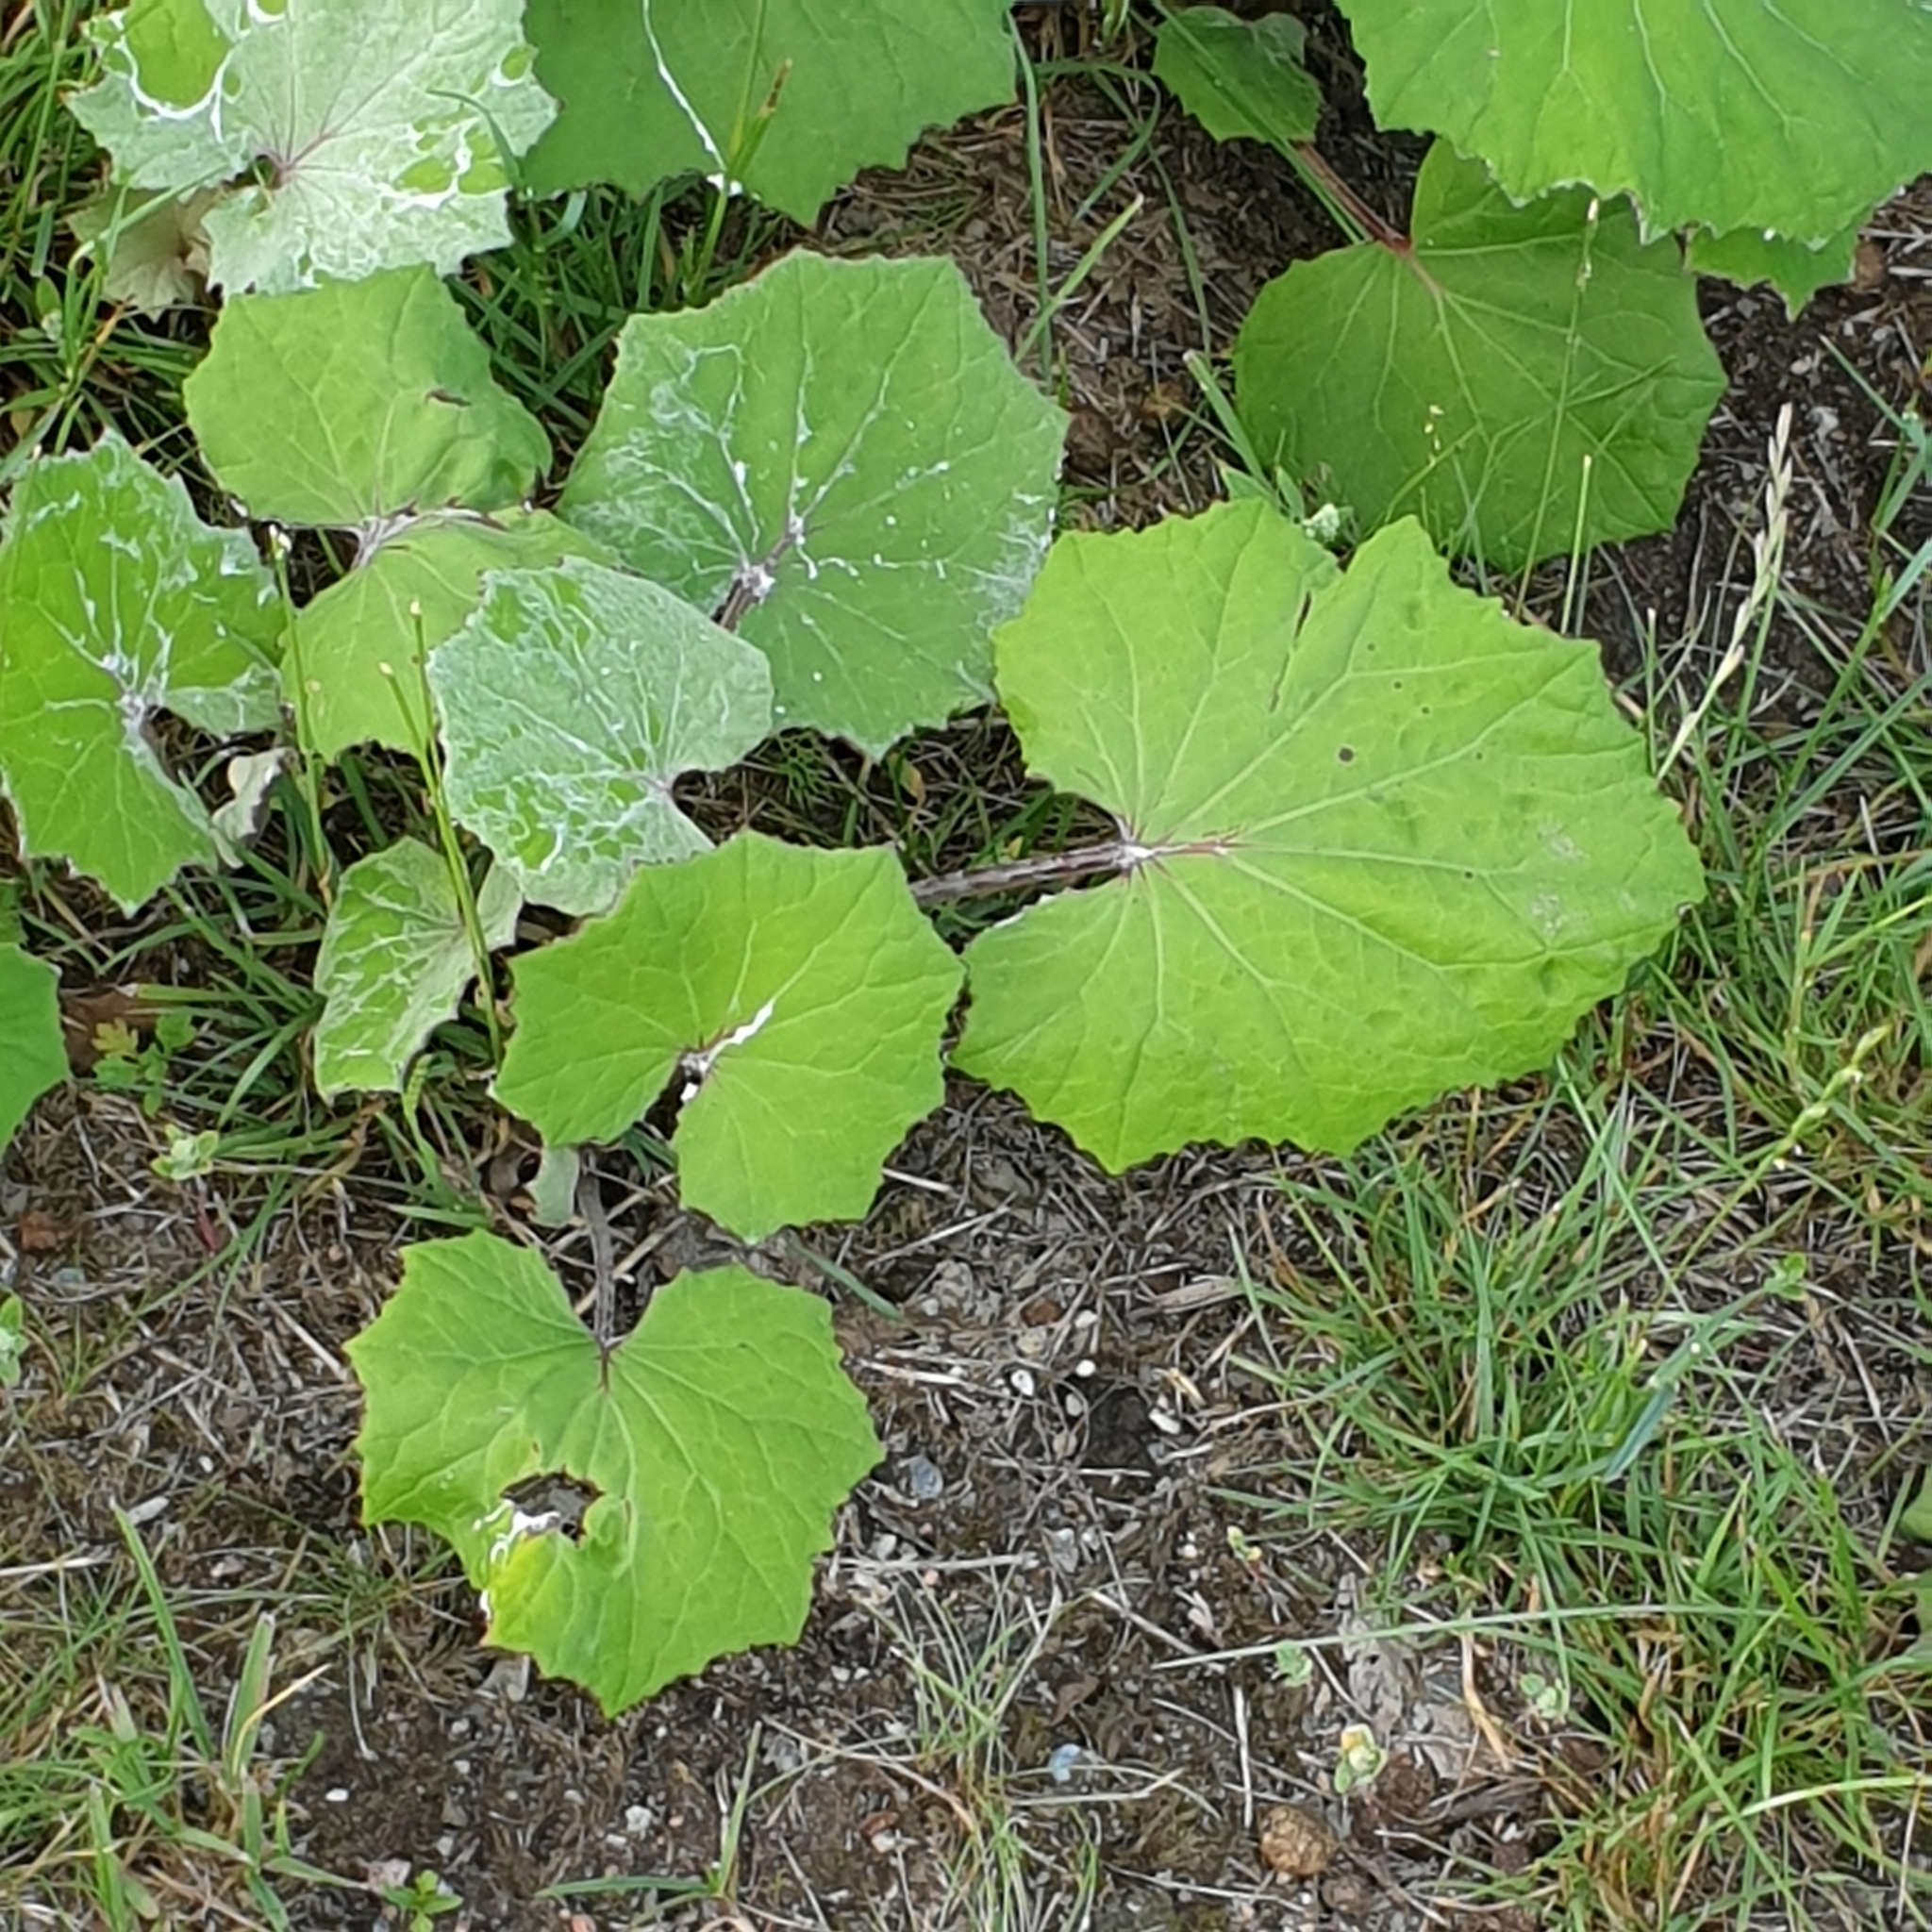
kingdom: Plantae
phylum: Tracheophyta
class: Magnoliopsida
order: Asterales
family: Asteraceae
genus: Tussilago
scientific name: Tussilago farfara
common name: Coltsfoot
